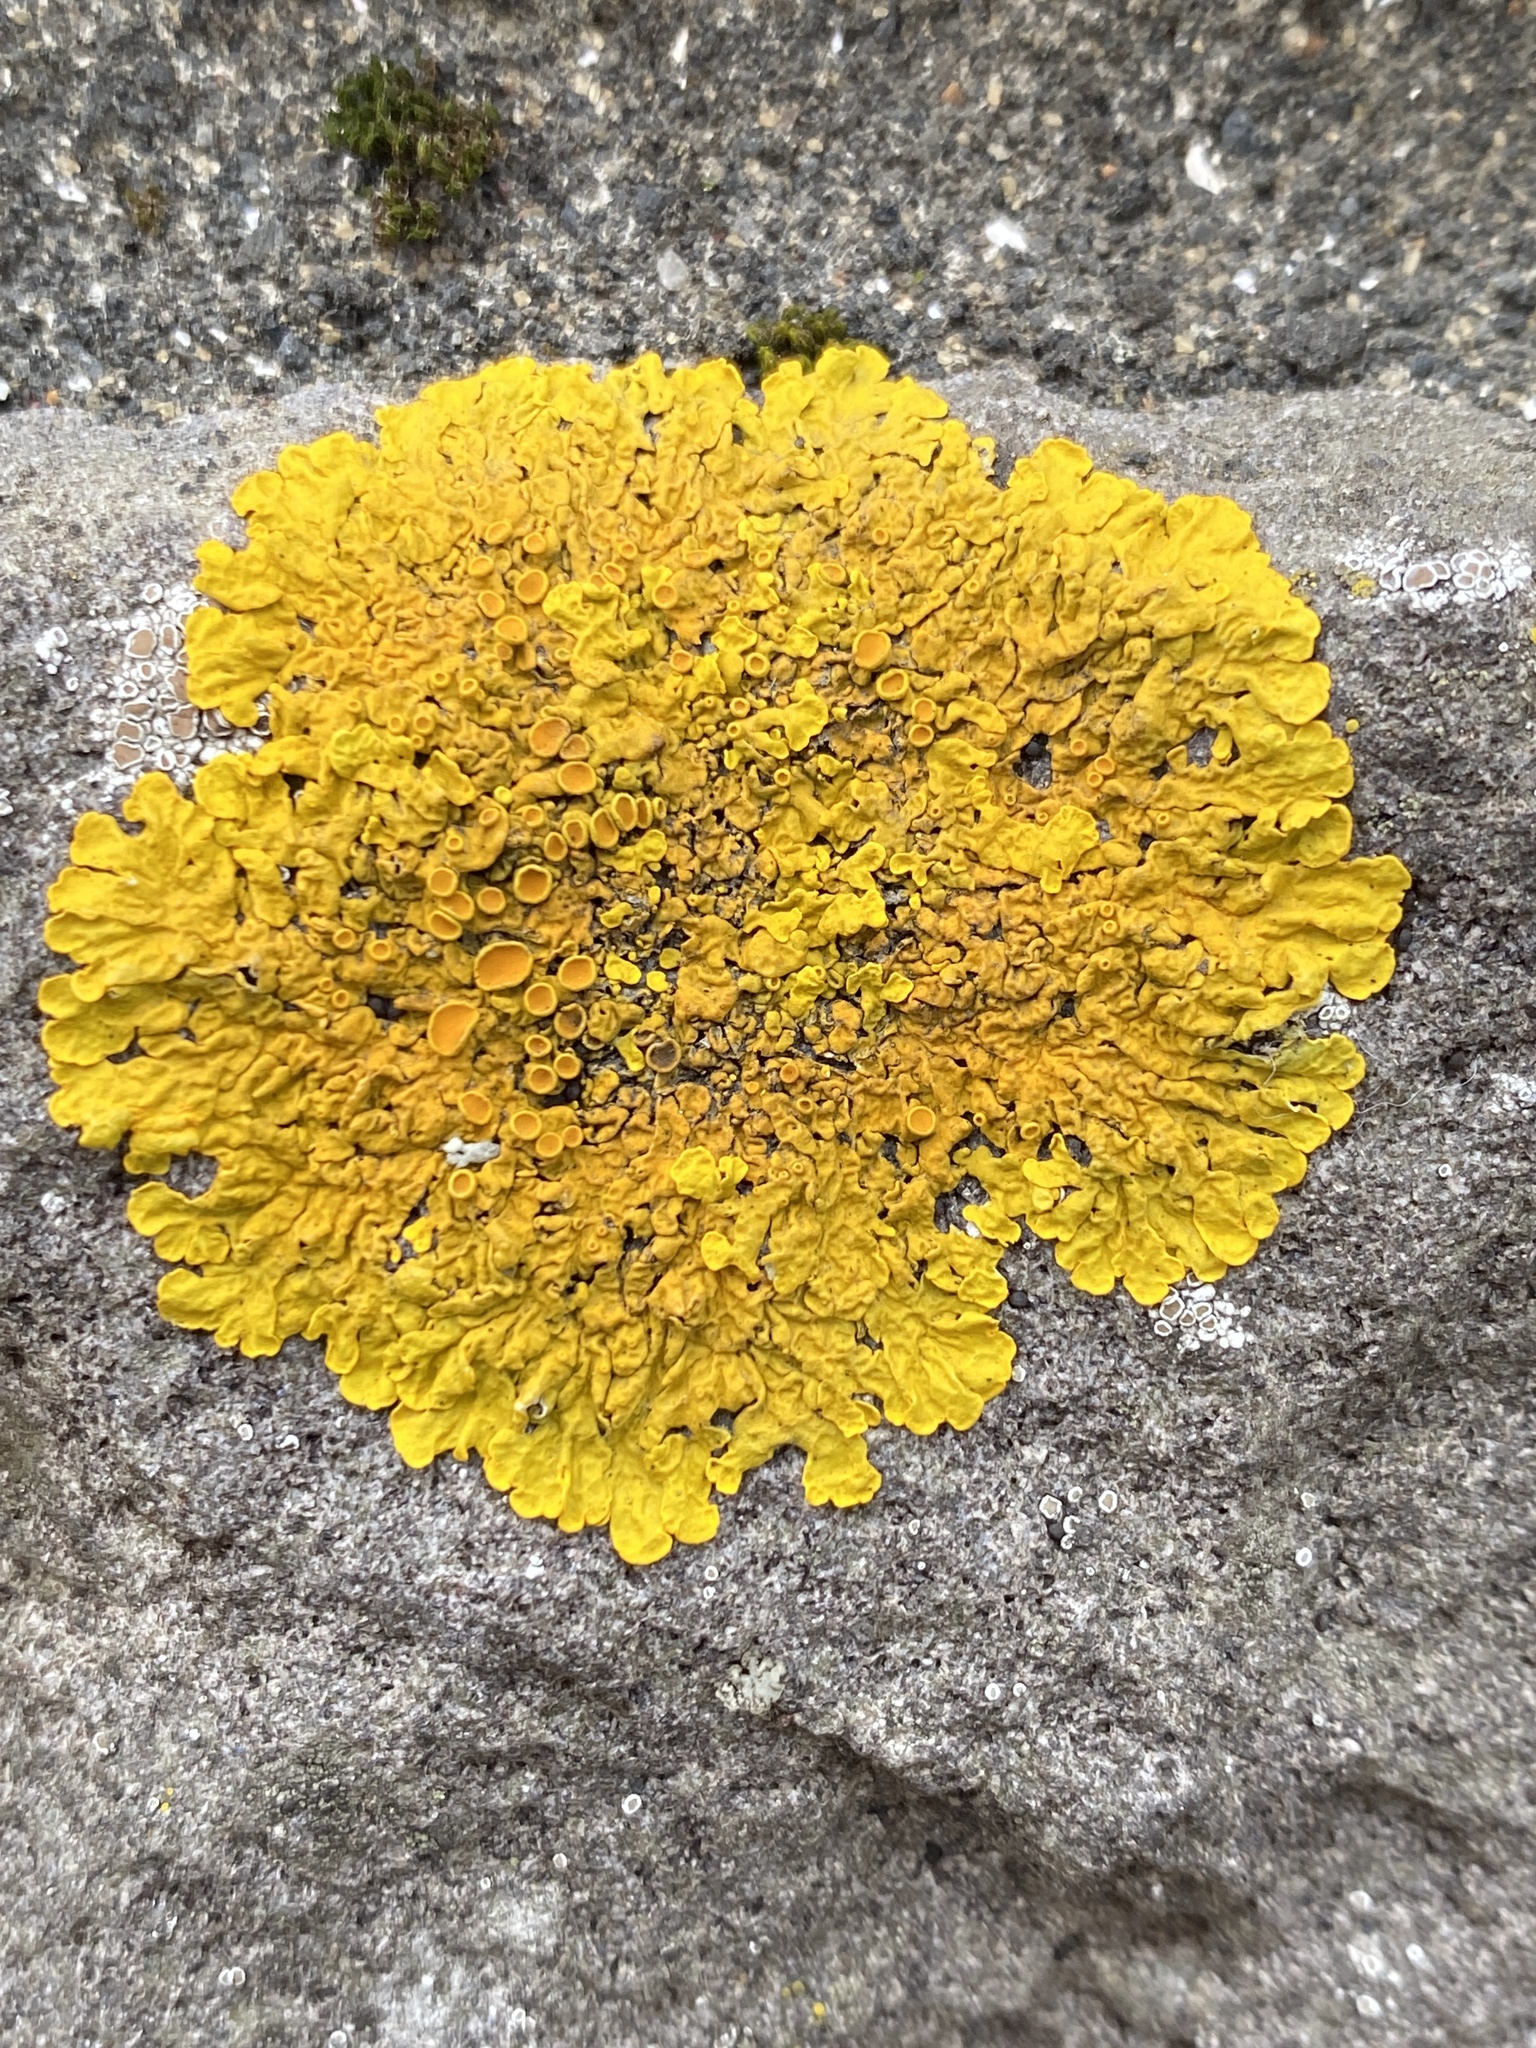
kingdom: Fungi
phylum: Ascomycota
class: Lecanoromycetes
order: Teloschistales
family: Teloschistaceae
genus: Xanthoria
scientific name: Xanthoria parietina
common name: Common orange lichen
